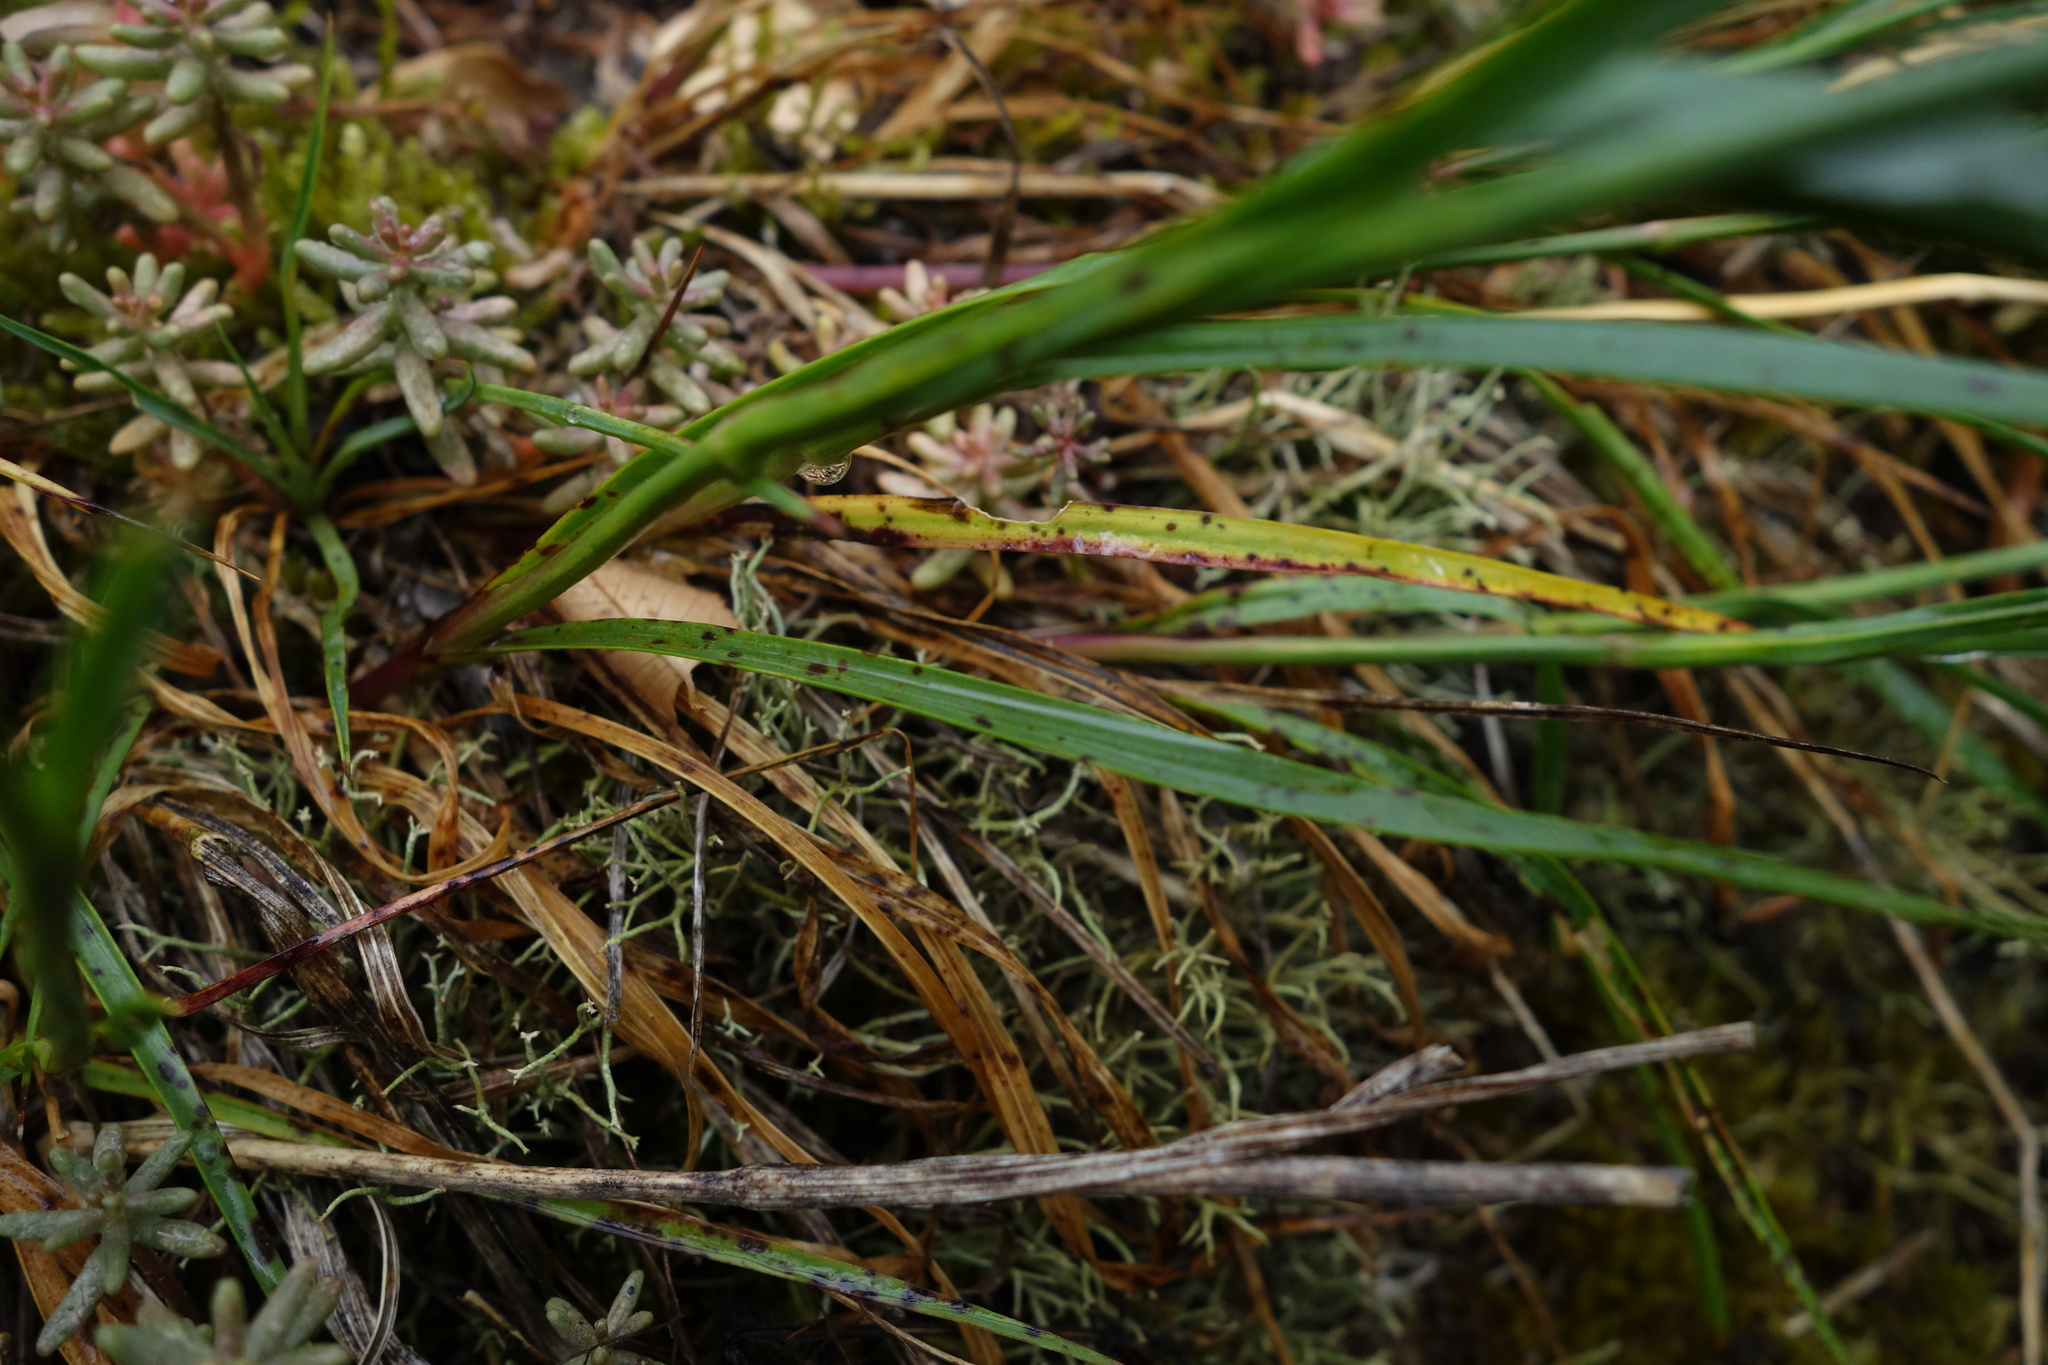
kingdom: Plantae
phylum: Tracheophyta
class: Magnoliopsida
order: Caryophyllales
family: Caryophyllaceae
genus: Dianthus
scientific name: Dianthus carthusianorum
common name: Carthusian pink
